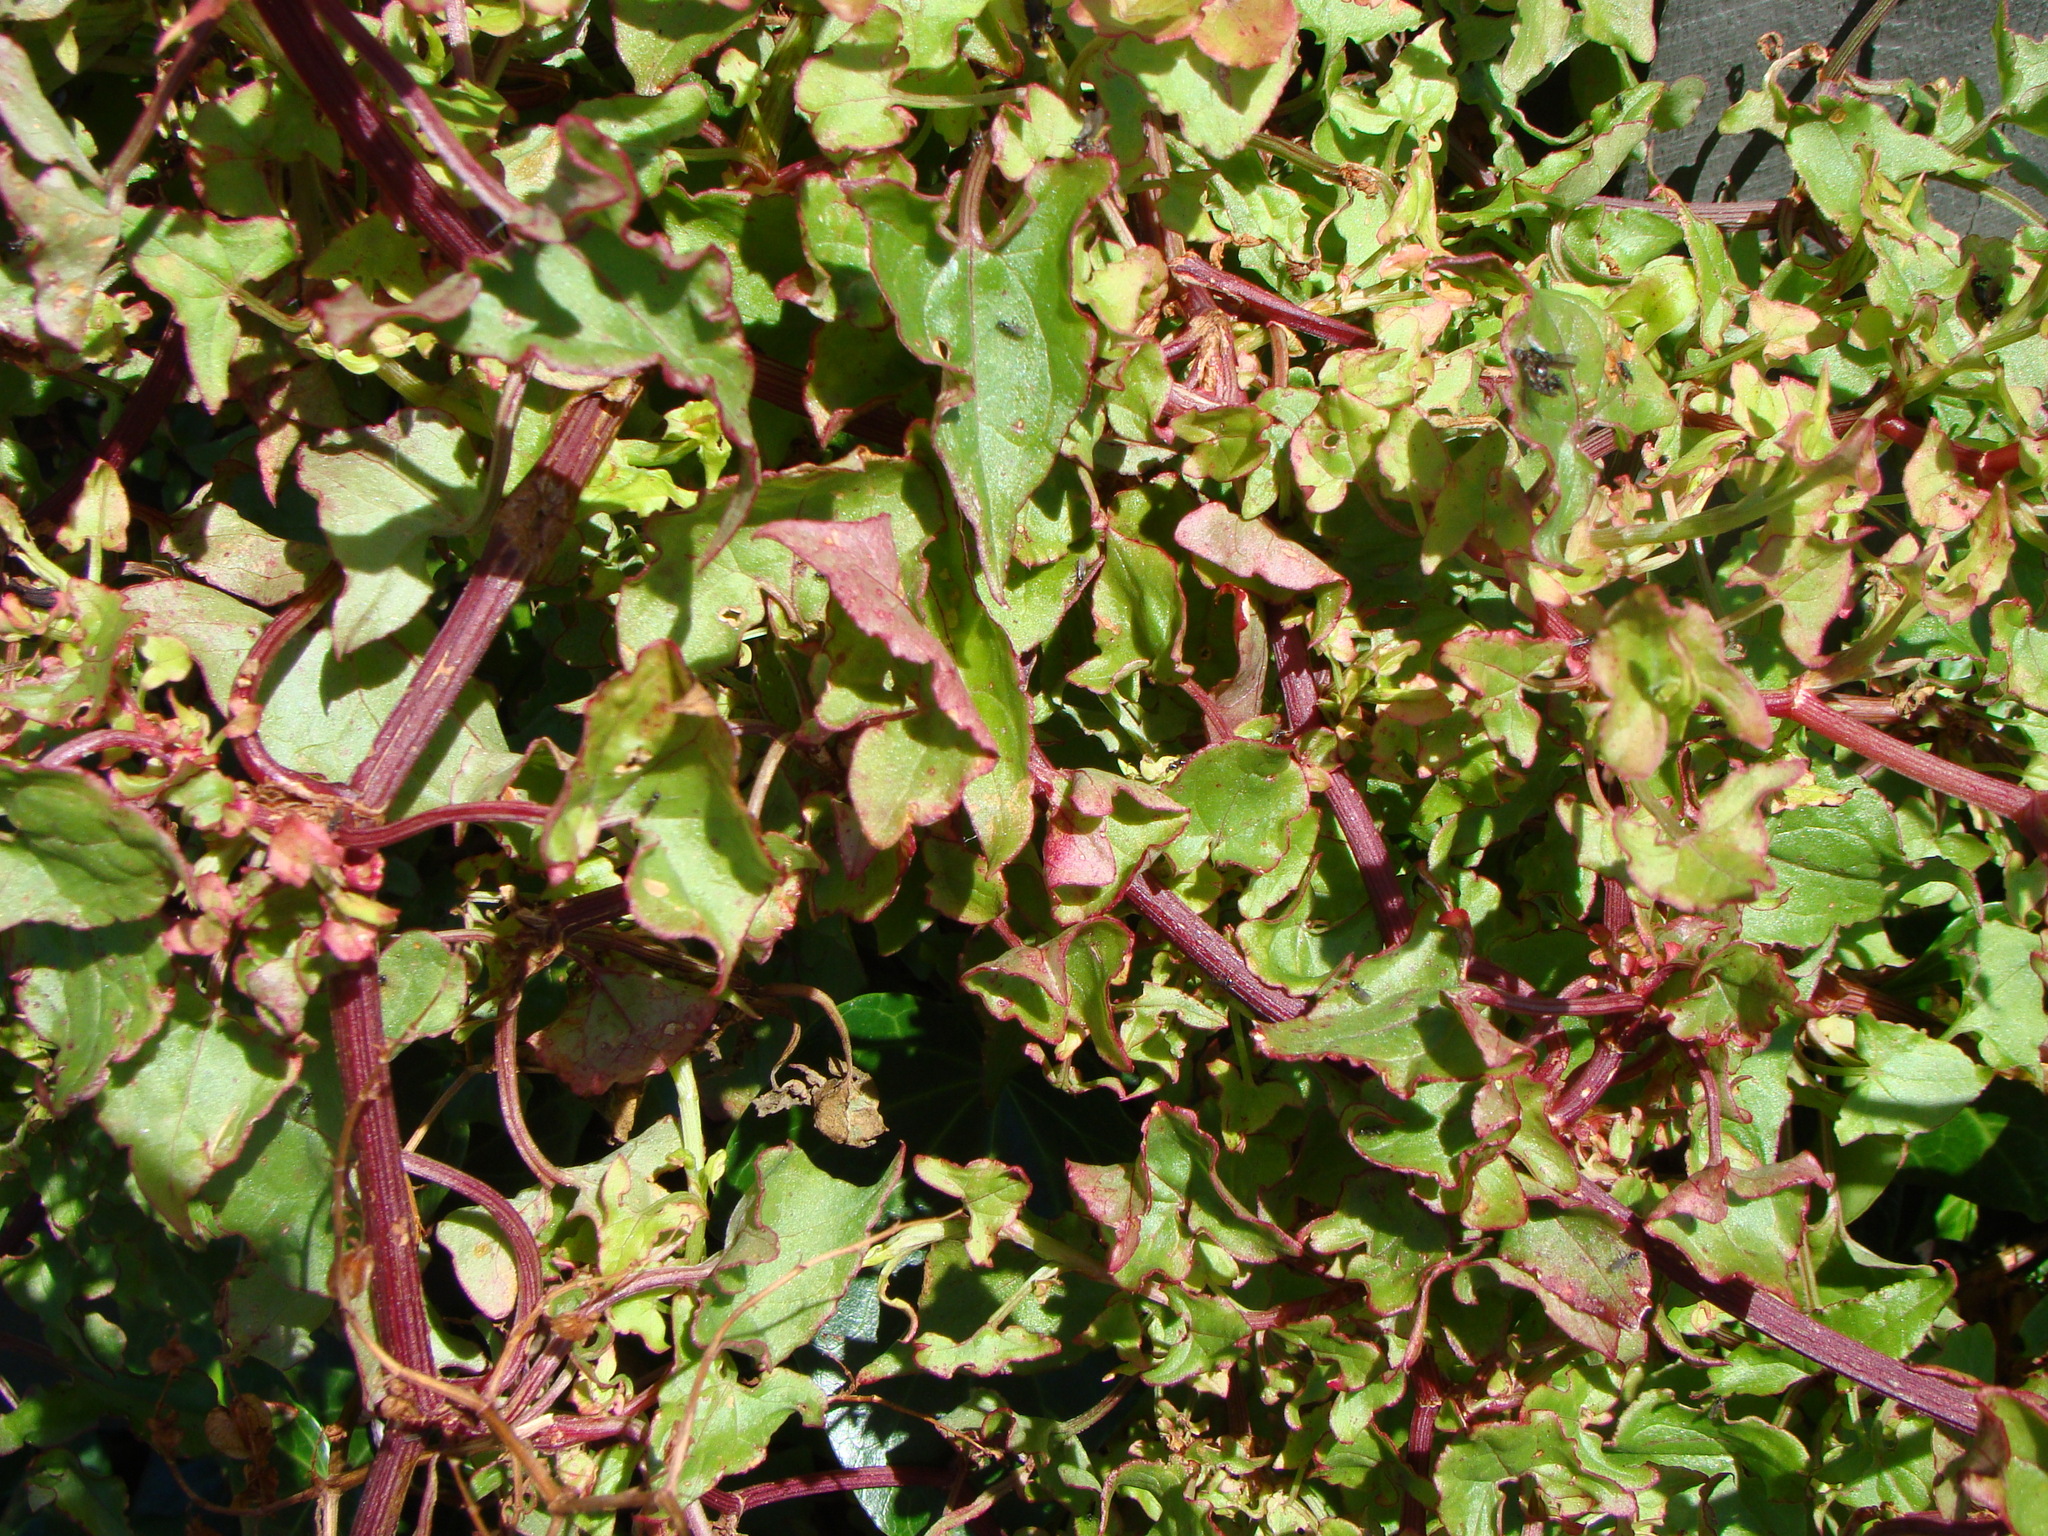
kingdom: Plantae
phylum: Tracheophyta
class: Magnoliopsida
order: Caryophyllales
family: Polygonaceae
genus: Rumex
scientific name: Rumex sagittatus
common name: Climbing dock
